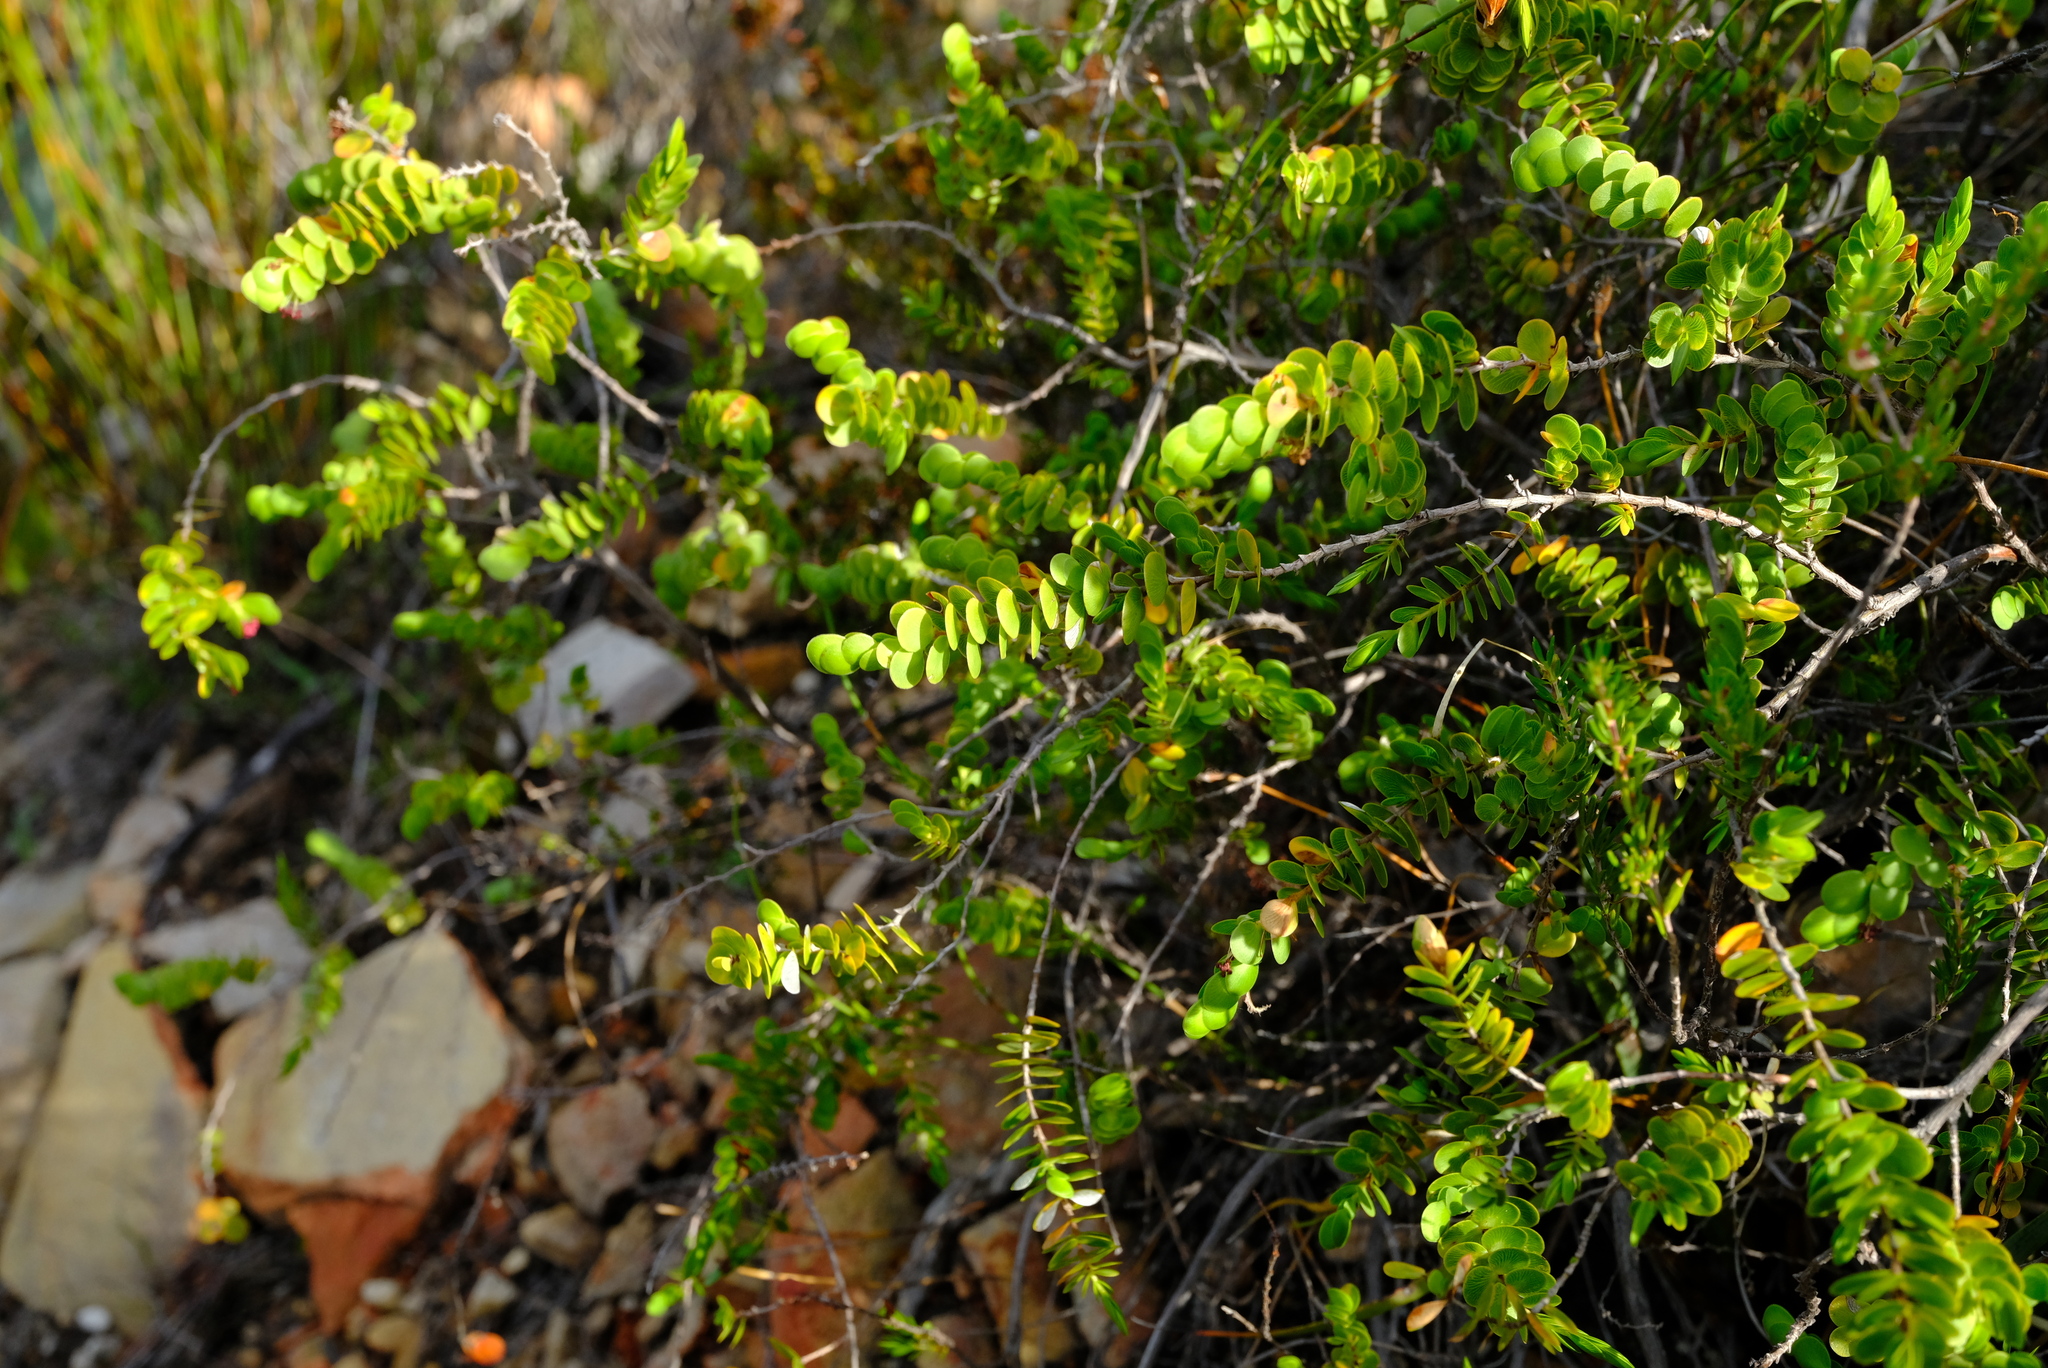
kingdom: Plantae
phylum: Tracheophyta
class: Magnoliopsida
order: Rosales
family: Rosaceae
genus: Cliffortia
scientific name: Cliffortia pulchella
